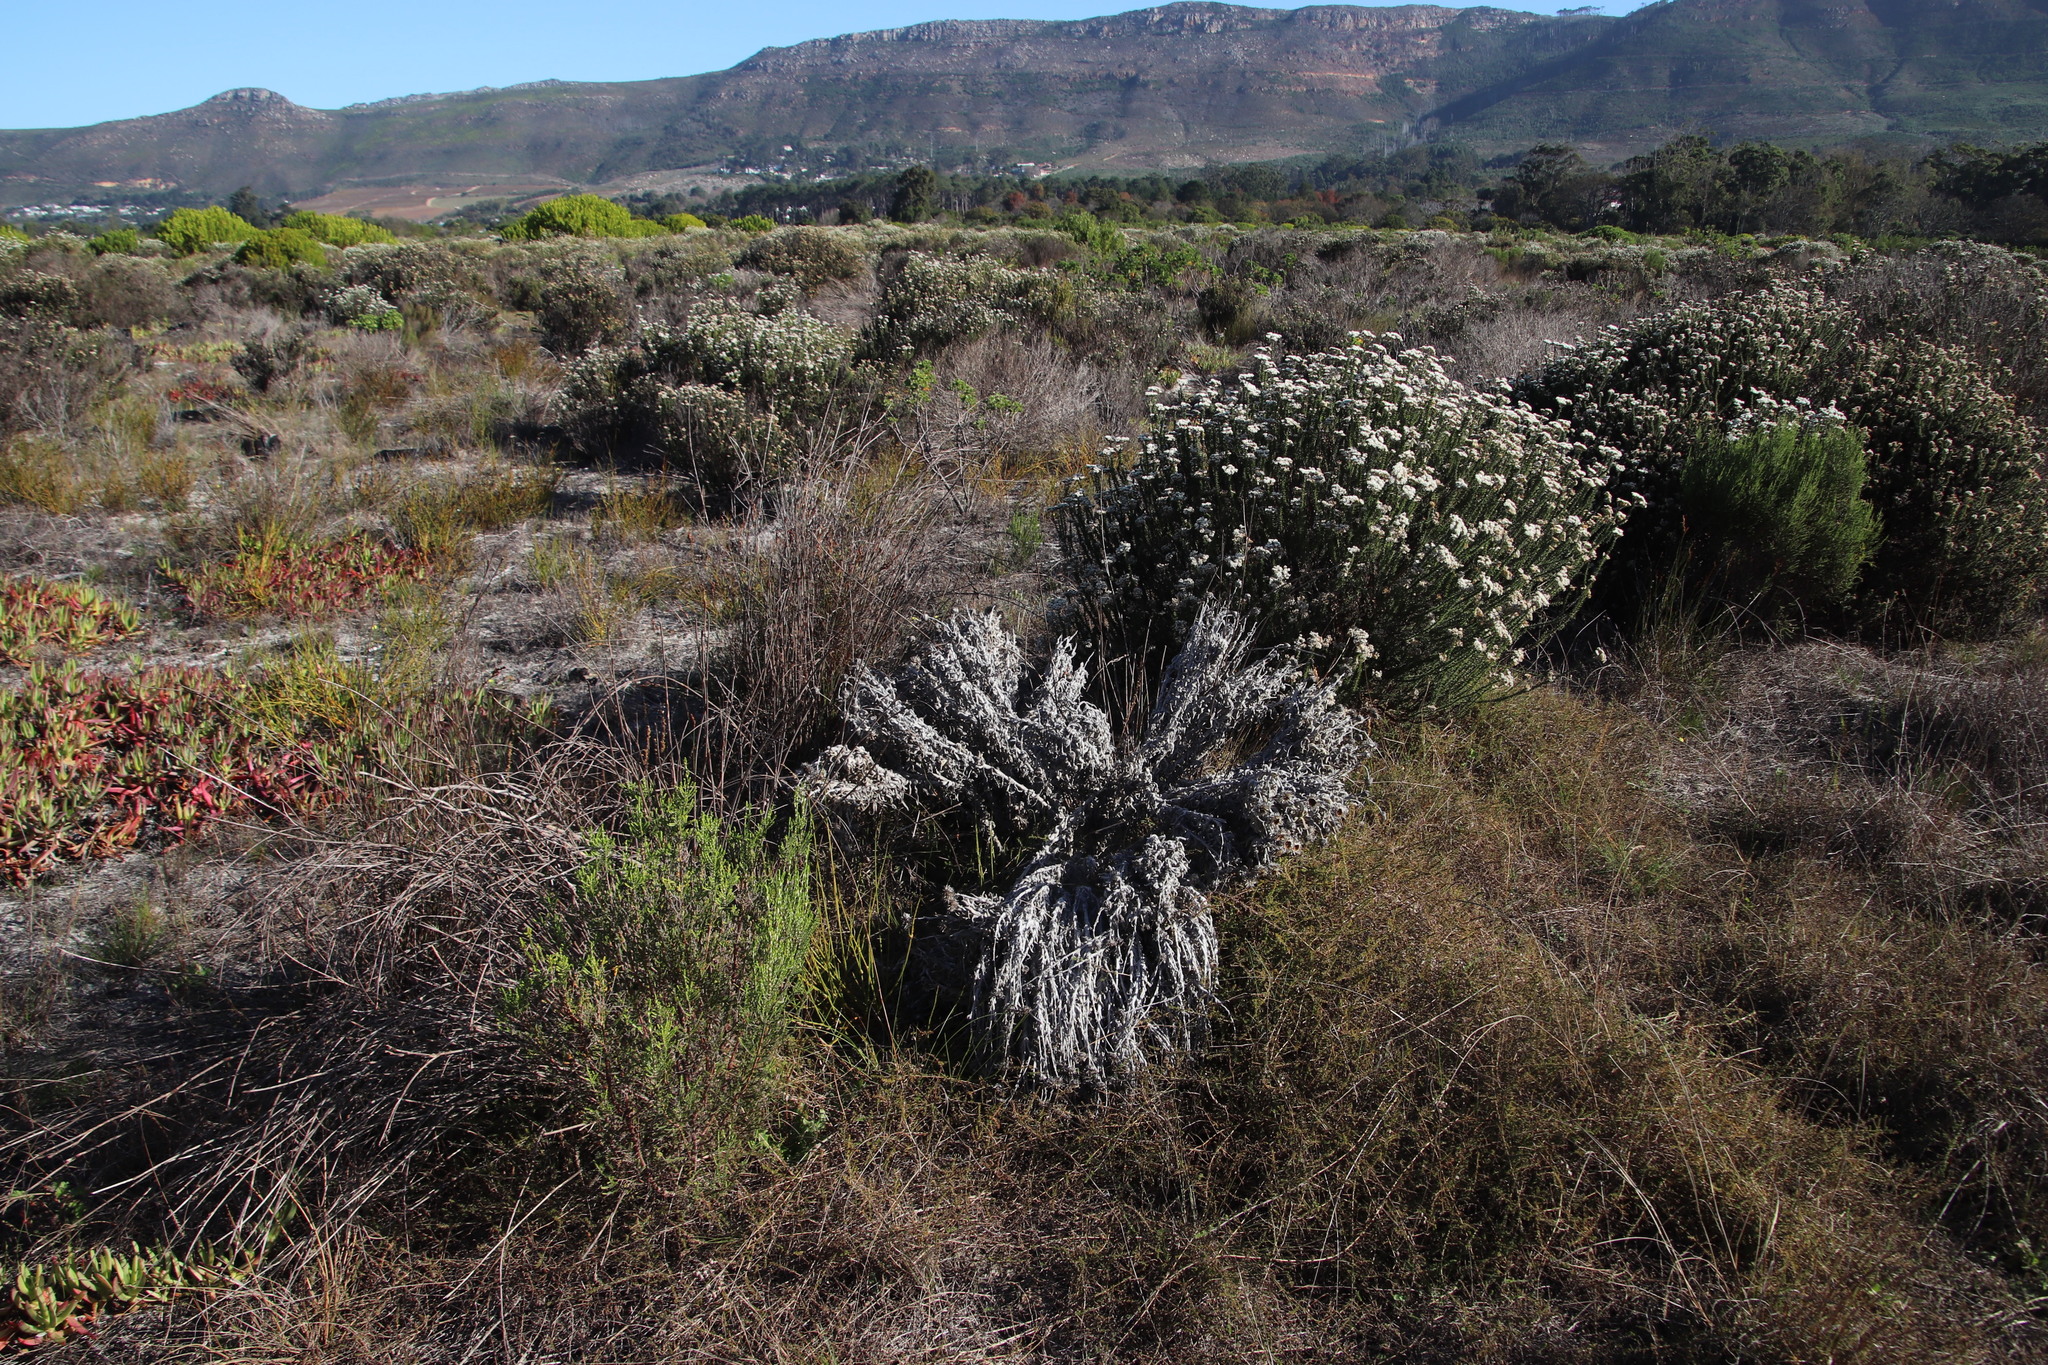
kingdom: Plantae
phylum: Tracheophyta
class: Magnoliopsida
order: Asterales
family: Asteraceae
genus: Syncarpha
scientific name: Syncarpha vestita
